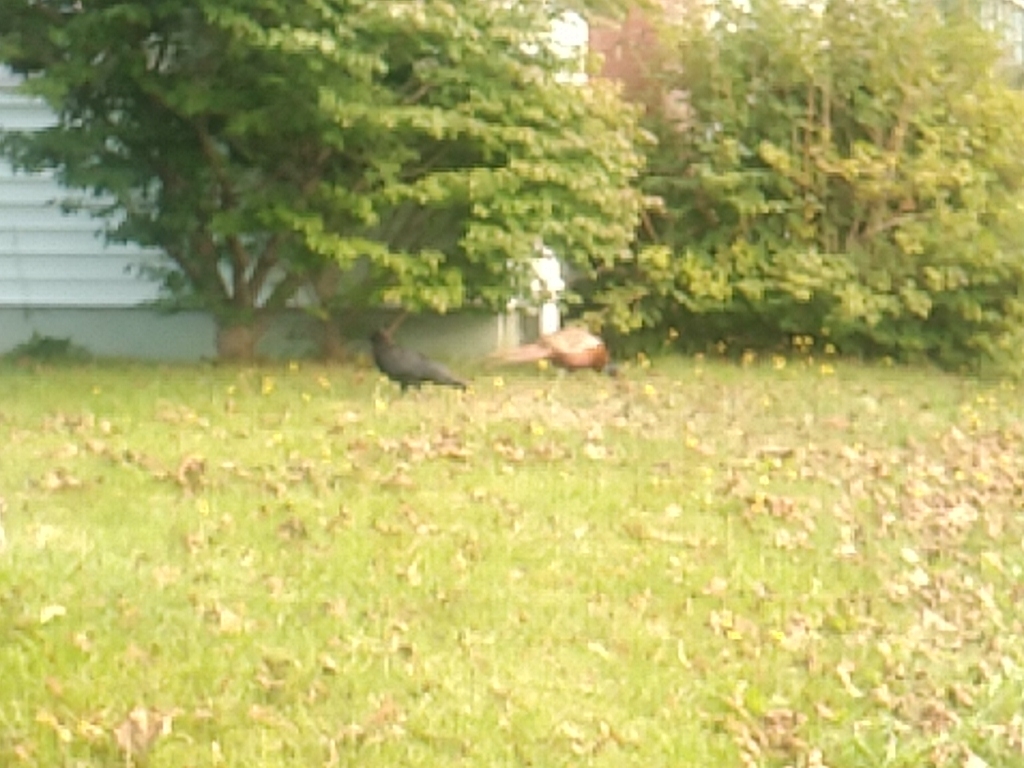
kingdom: Animalia
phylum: Chordata
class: Aves
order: Galliformes
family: Phasianidae
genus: Phasianus
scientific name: Phasianus colchicus
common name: Common pheasant
